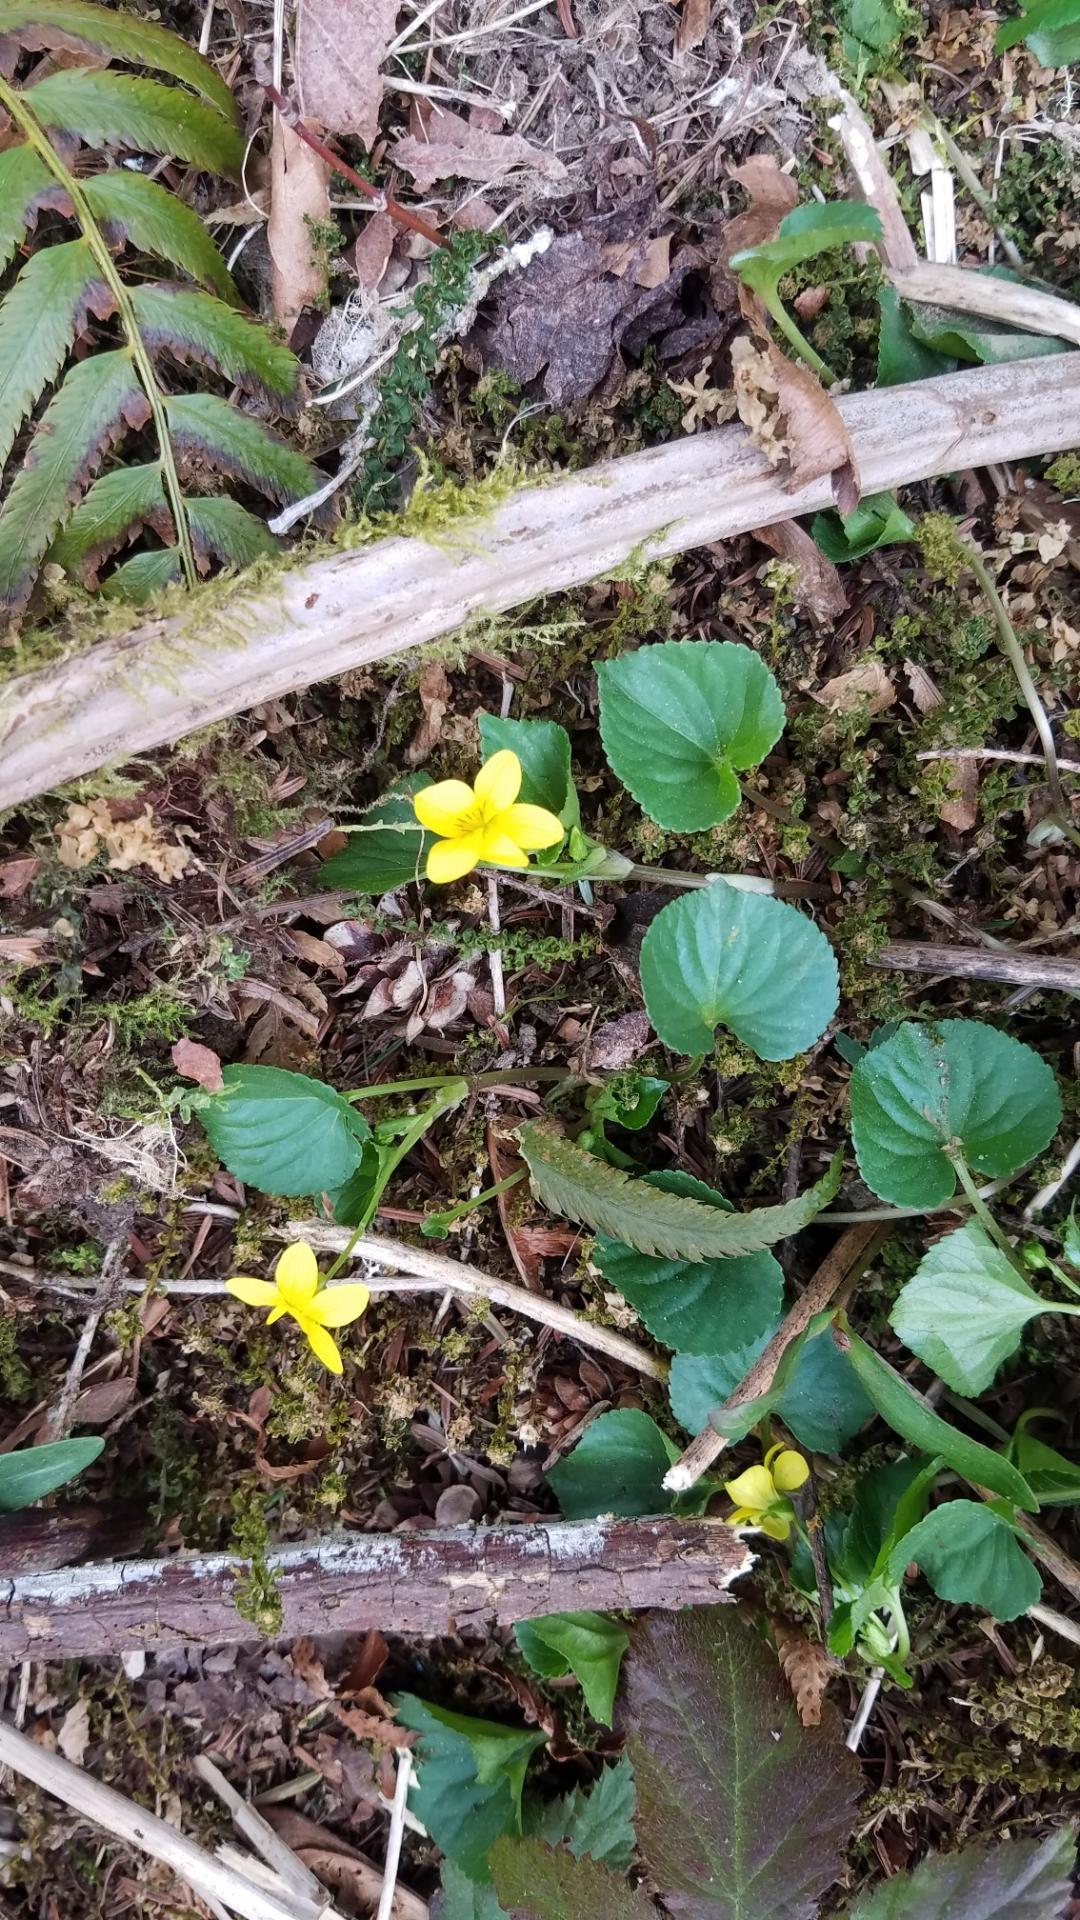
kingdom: Plantae
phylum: Tracheophyta
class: Magnoliopsida
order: Malpighiales
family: Violaceae
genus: Viola
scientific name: Viola glabella
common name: Stream violet
